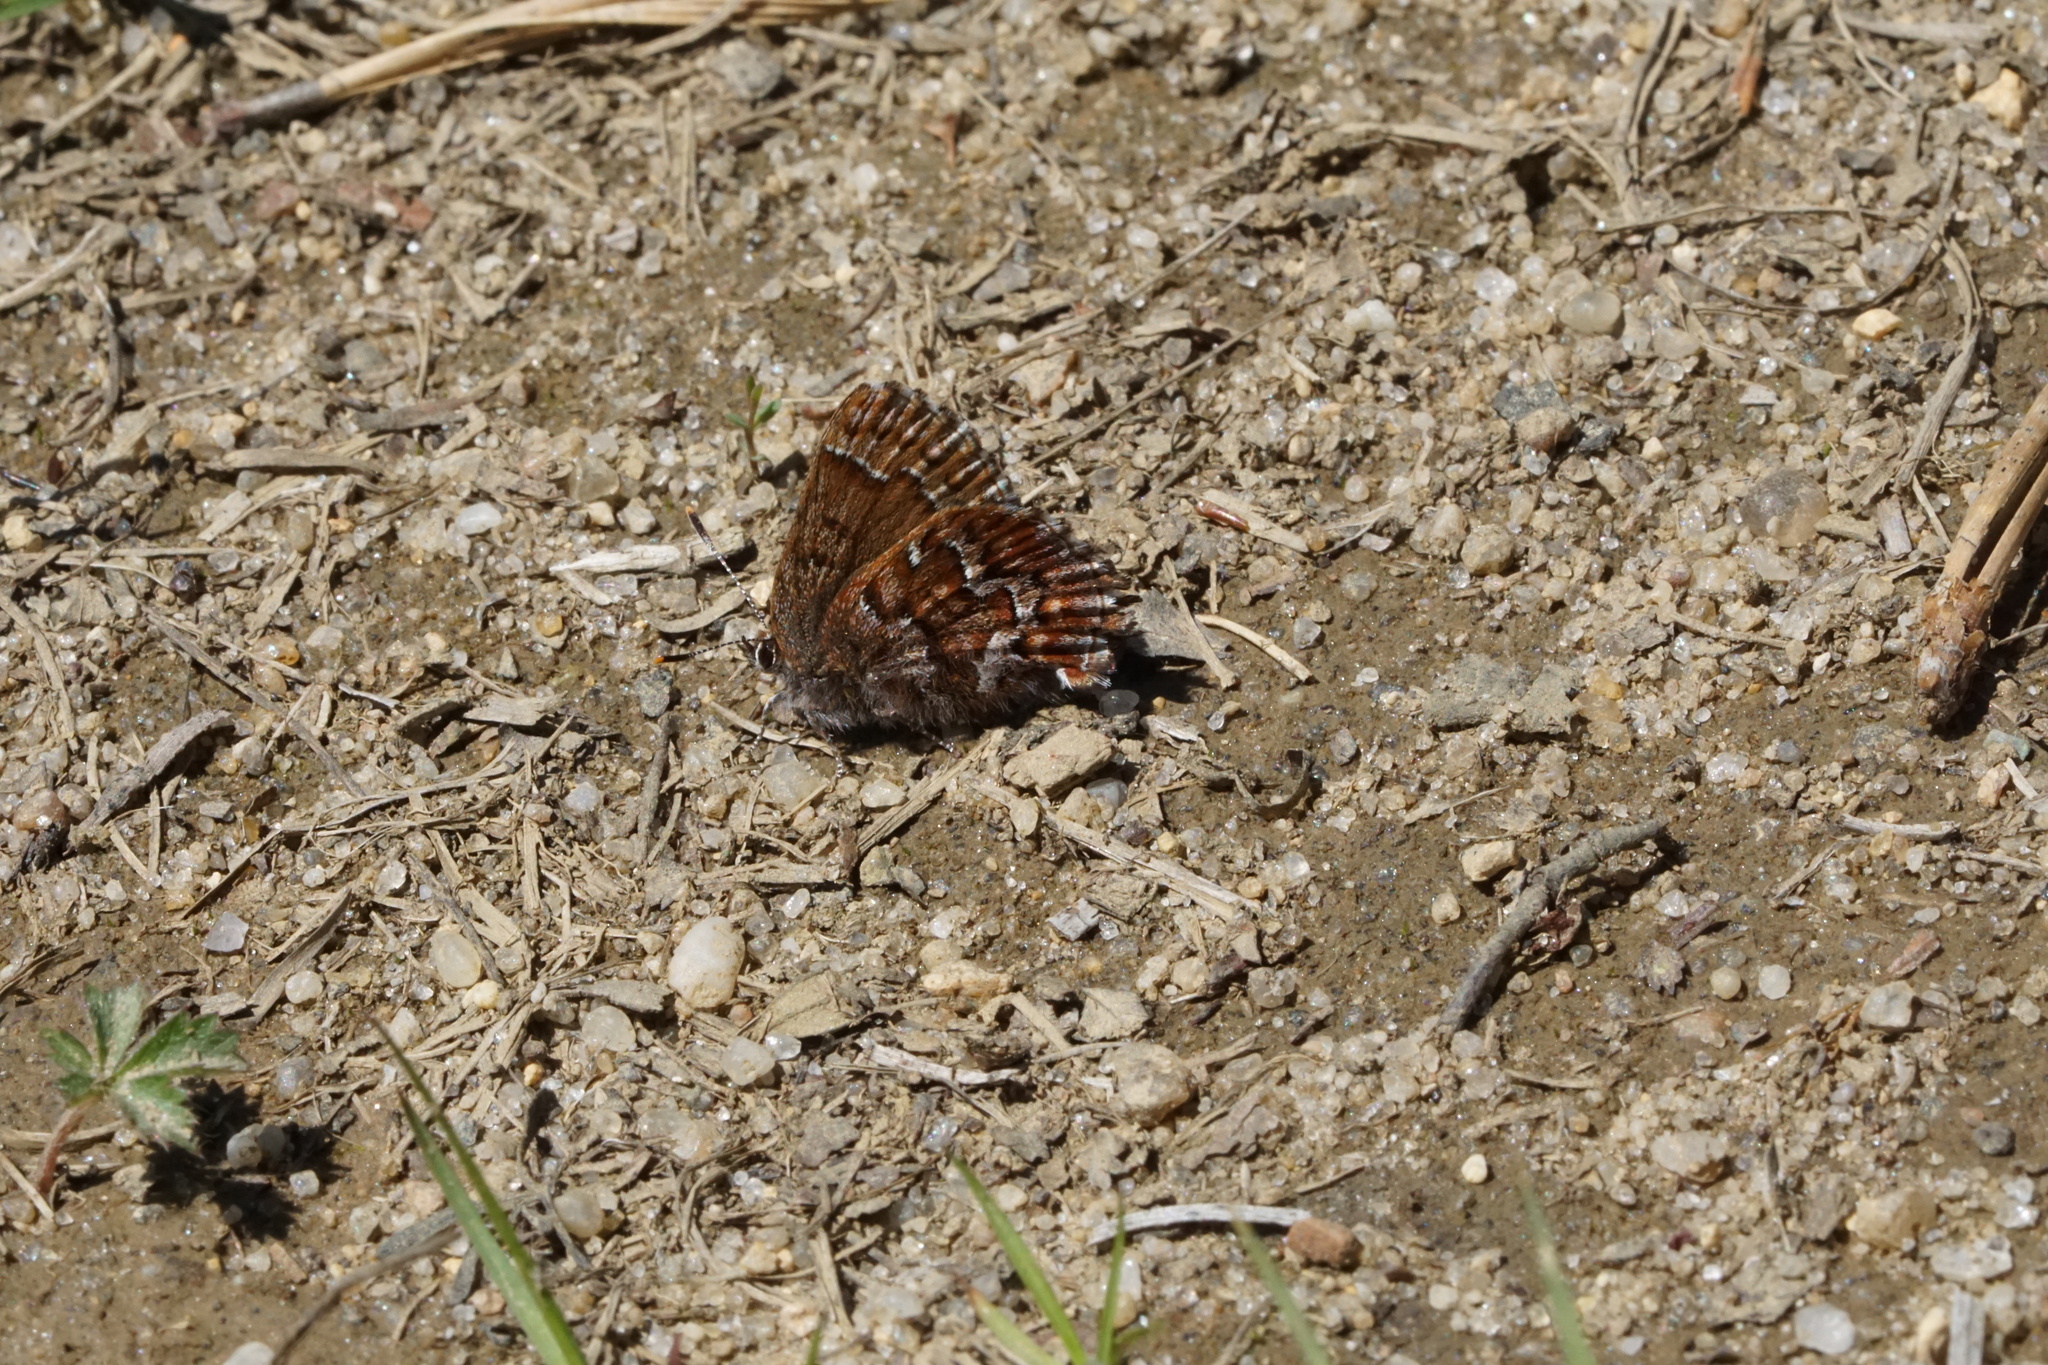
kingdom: Animalia
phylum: Arthropoda
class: Insecta
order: Lepidoptera
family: Lycaenidae
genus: Incisalia
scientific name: Incisalia niphon
